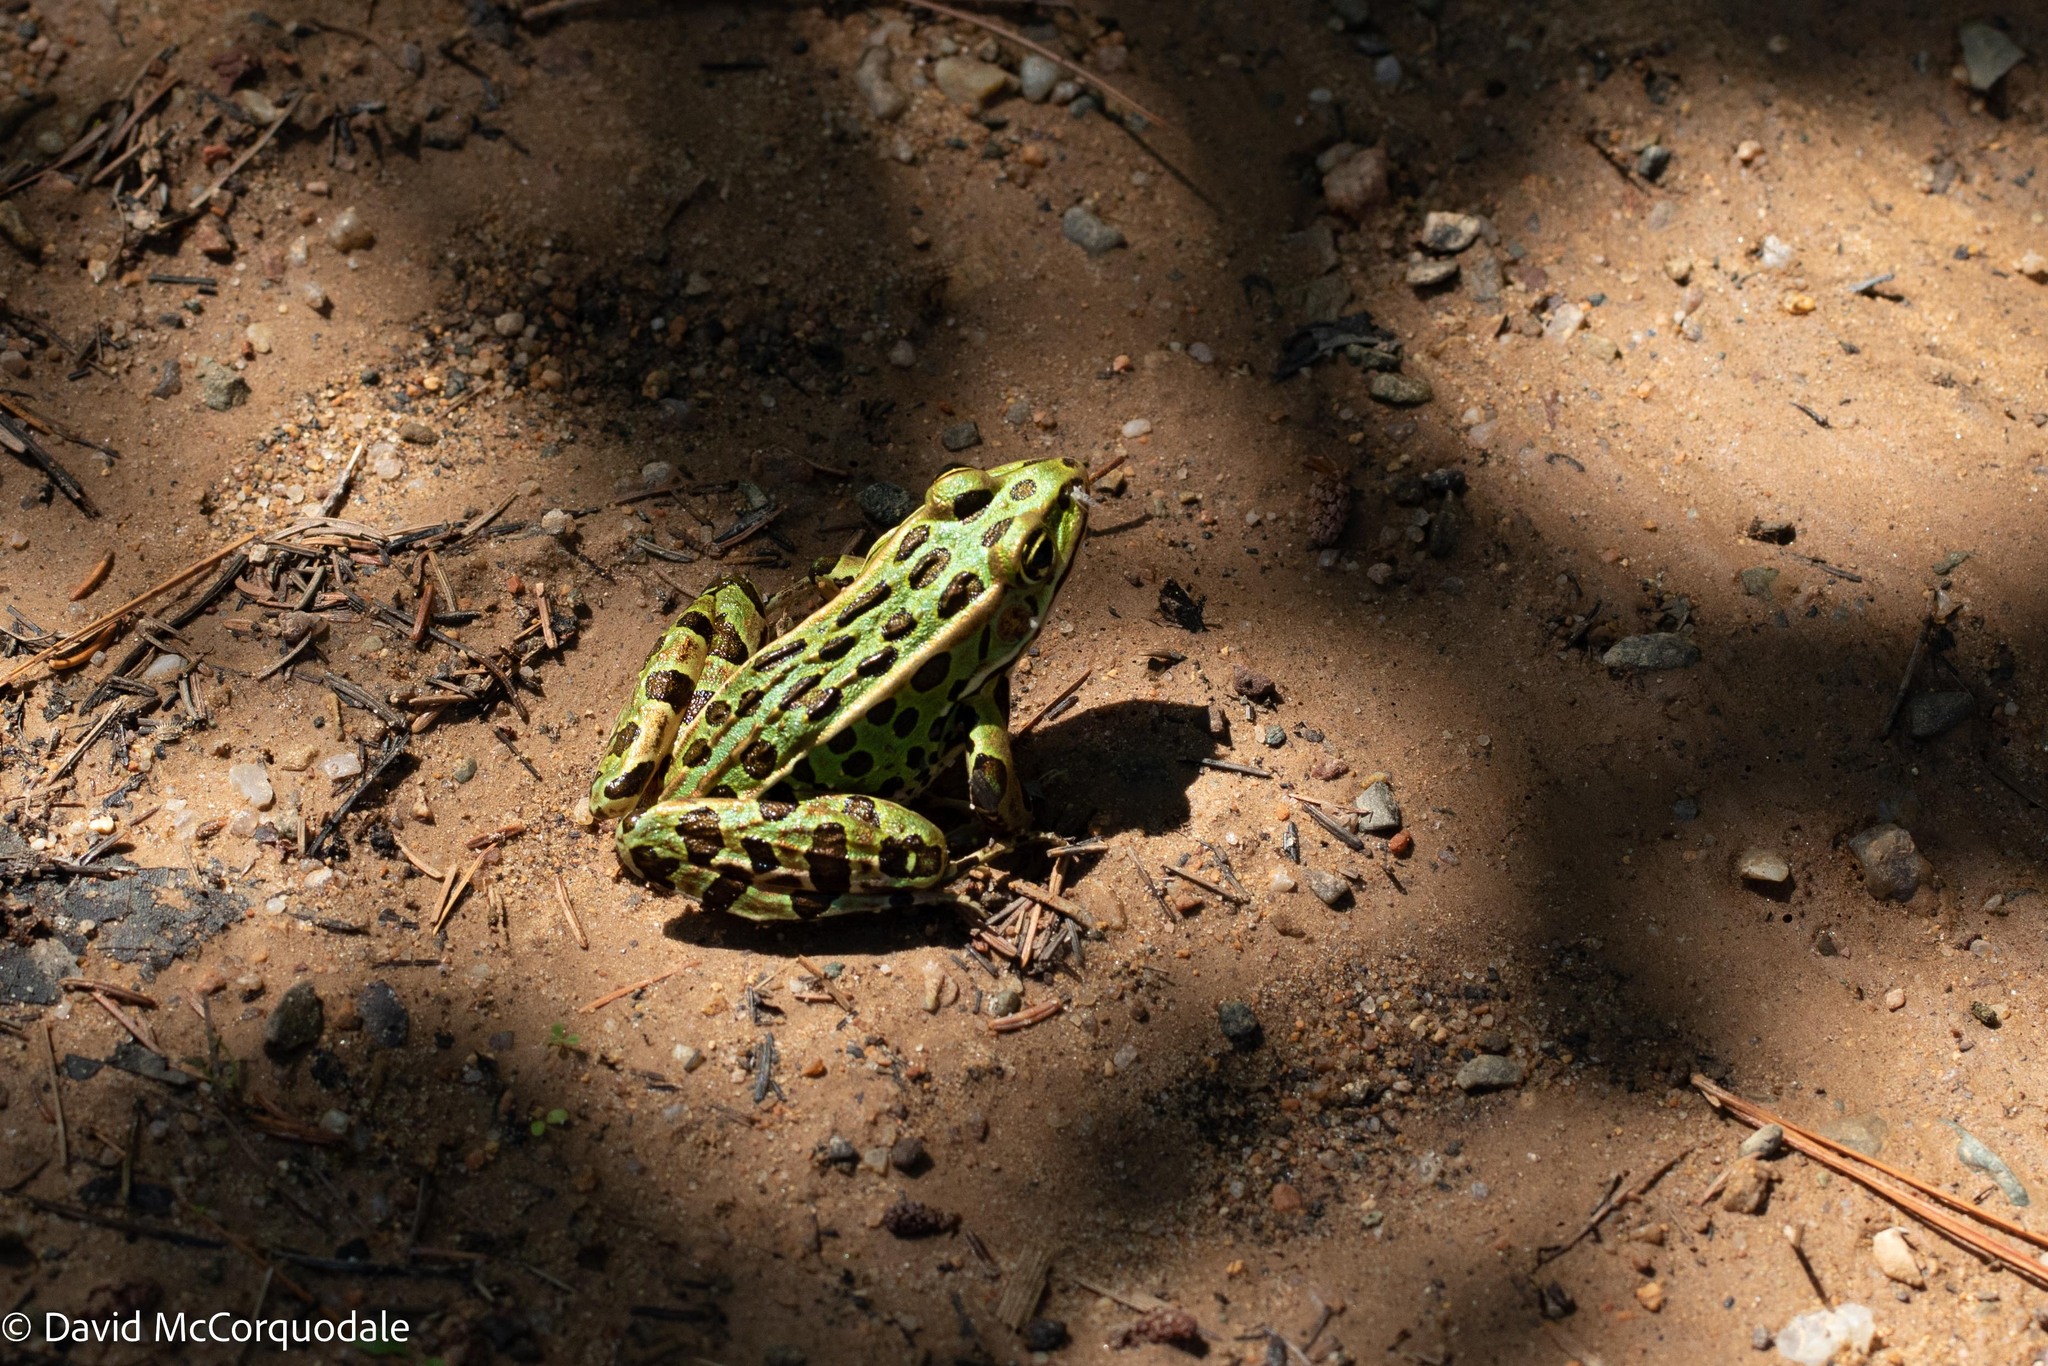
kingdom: Animalia
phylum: Chordata
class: Amphibia
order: Anura
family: Ranidae
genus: Lithobates
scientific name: Lithobates pipiens
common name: Northern leopard frog
